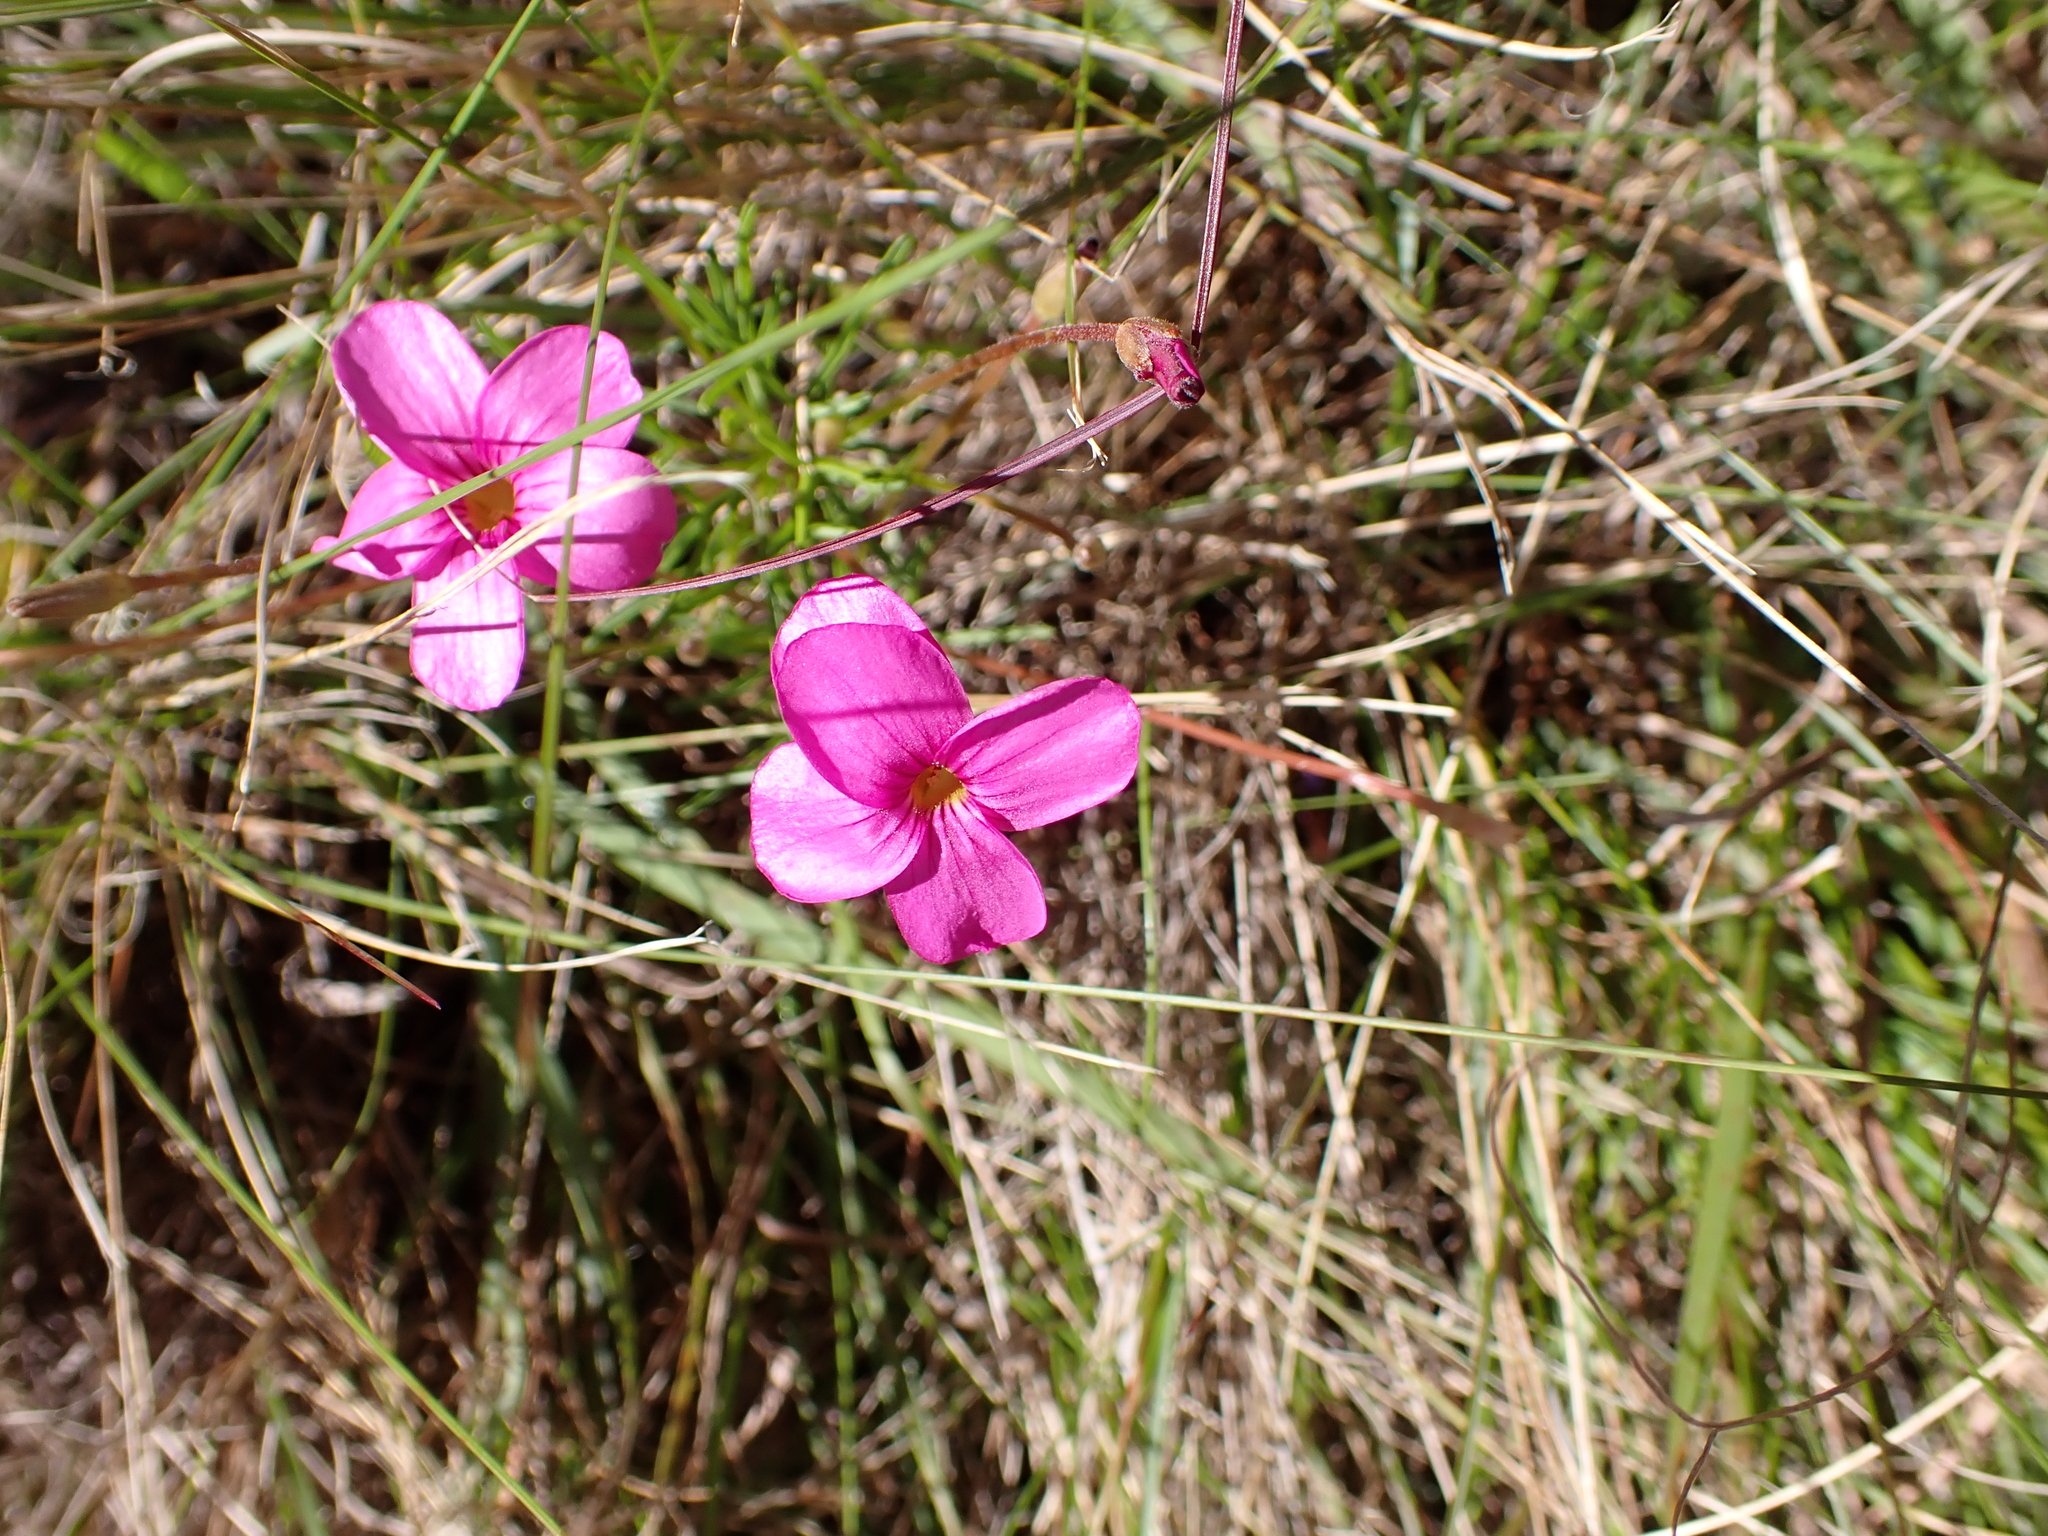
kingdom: Plantae
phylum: Tracheophyta
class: Magnoliopsida
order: Oxalidales
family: Oxalidaceae
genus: Oxalis
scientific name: Oxalis polyphylla
